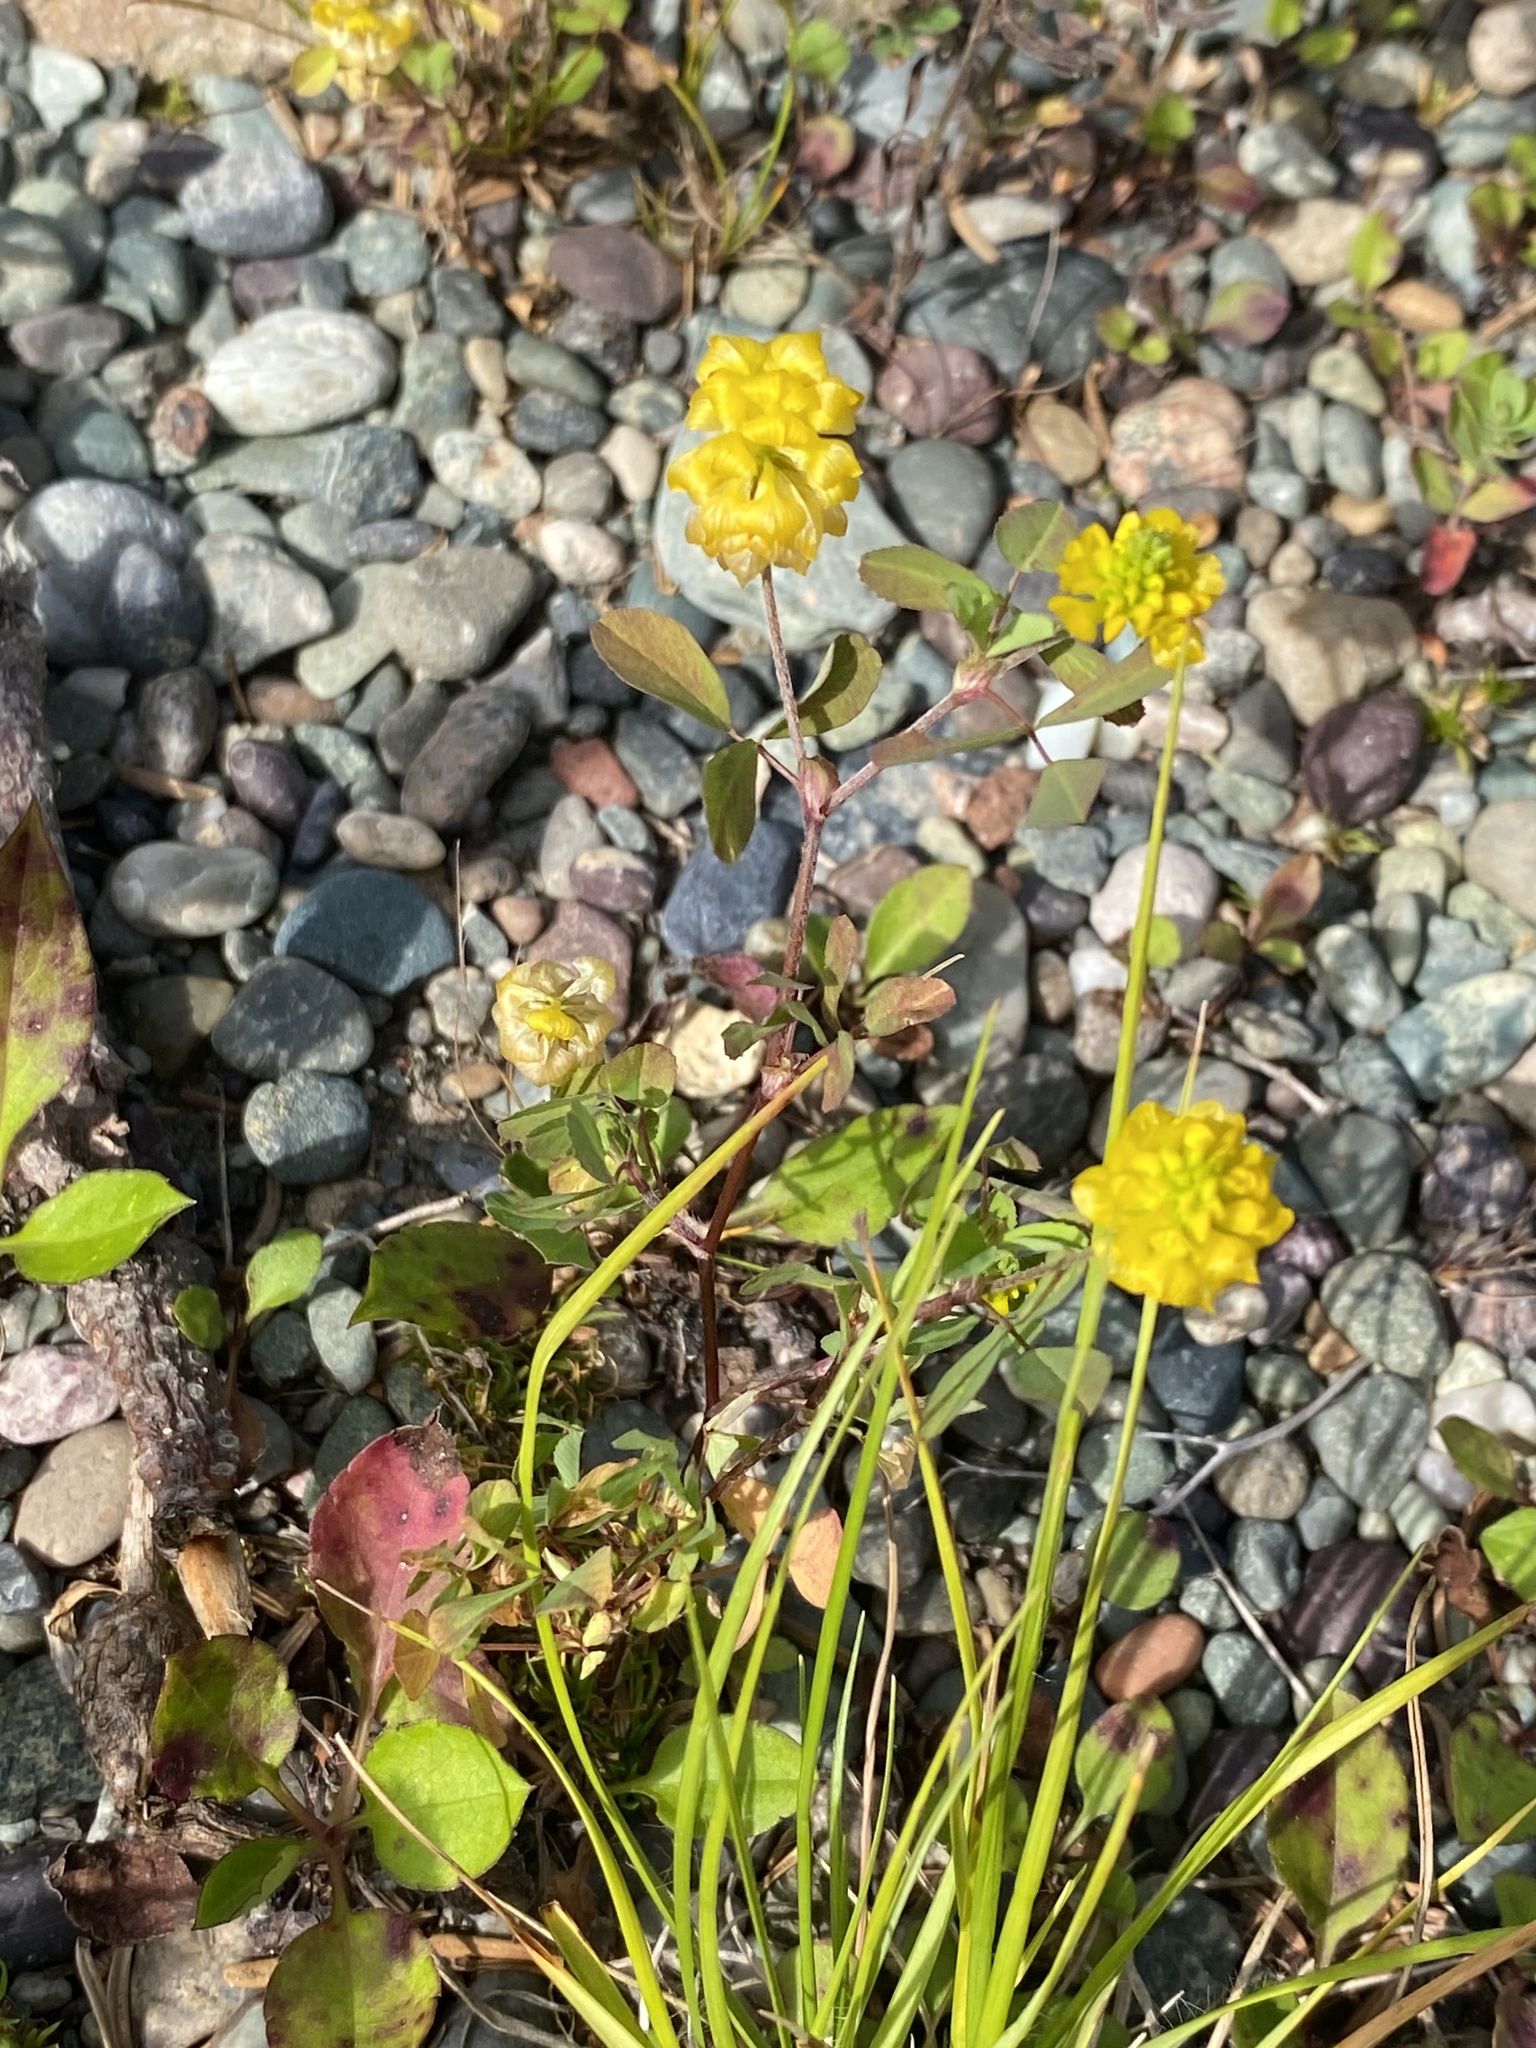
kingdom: Plantae
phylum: Tracheophyta
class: Magnoliopsida
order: Fabales
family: Fabaceae
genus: Trifolium
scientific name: Trifolium campestre
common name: Field clover
